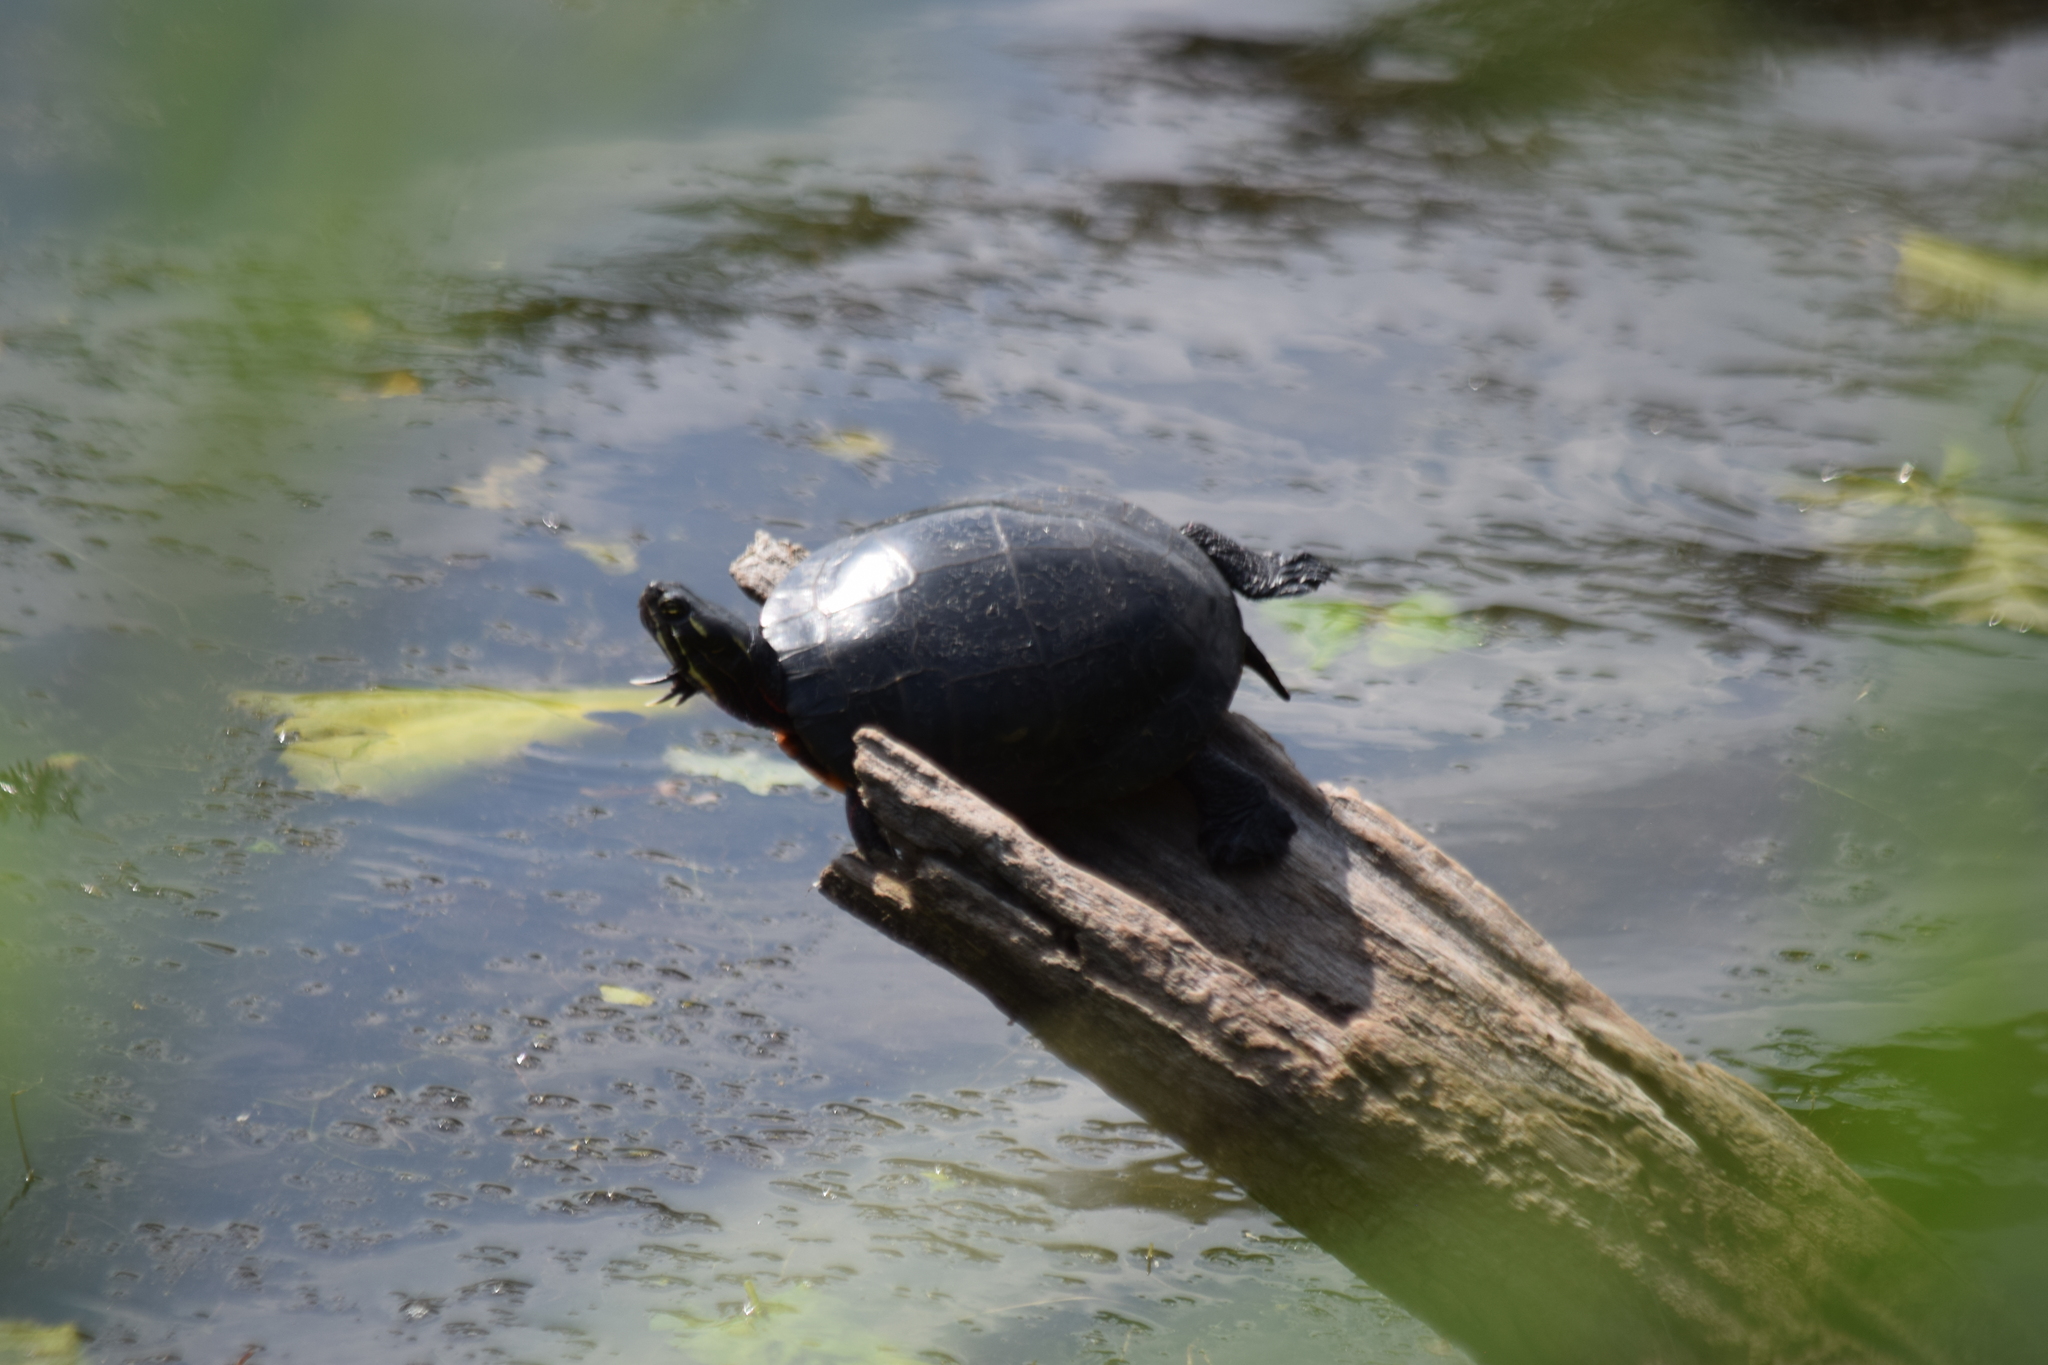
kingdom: Animalia
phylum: Chordata
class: Testudines
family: Emydidae
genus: Chrysemys
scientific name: Chrysemys picta
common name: Painted turtle
